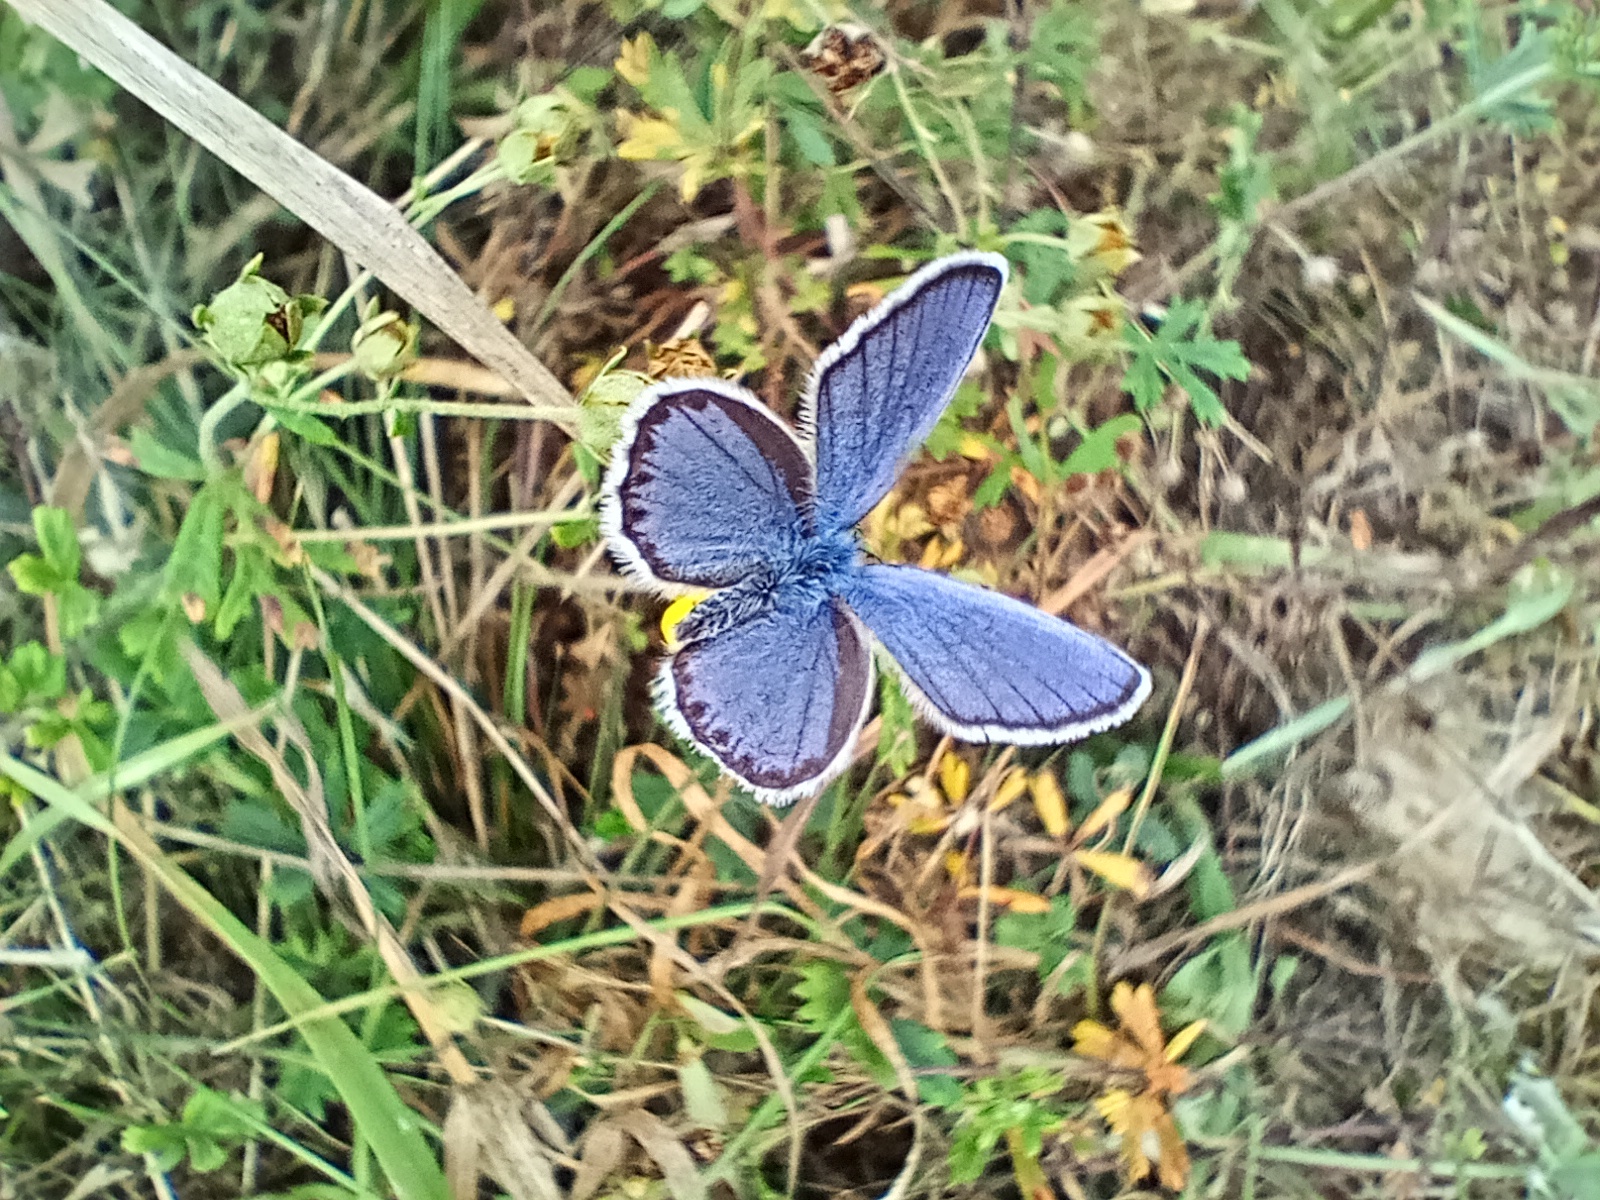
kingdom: Animalia
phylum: Arthropoda
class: Insecta
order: Lepidoptera
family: Lycaenidae
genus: Plebejus
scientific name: Plebejus argyrognomon
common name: Reverdin's blue
